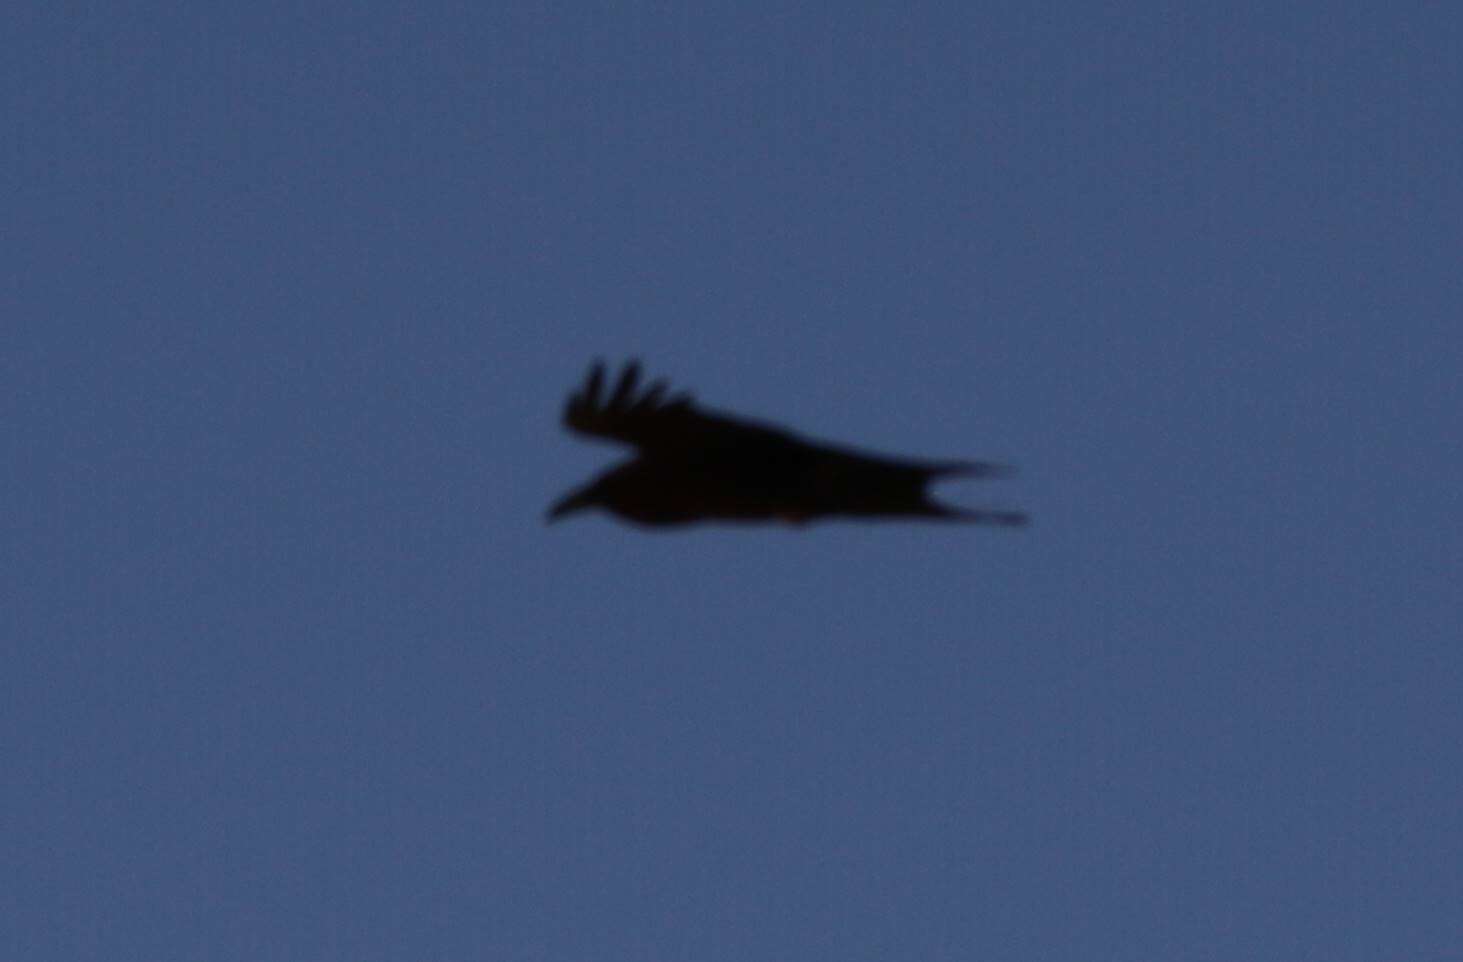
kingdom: Animalia
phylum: Chordata
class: Aves
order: Passeriformes
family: Corvidae
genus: Corvus
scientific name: Corvus ruficollis
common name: Brown-necked raven
